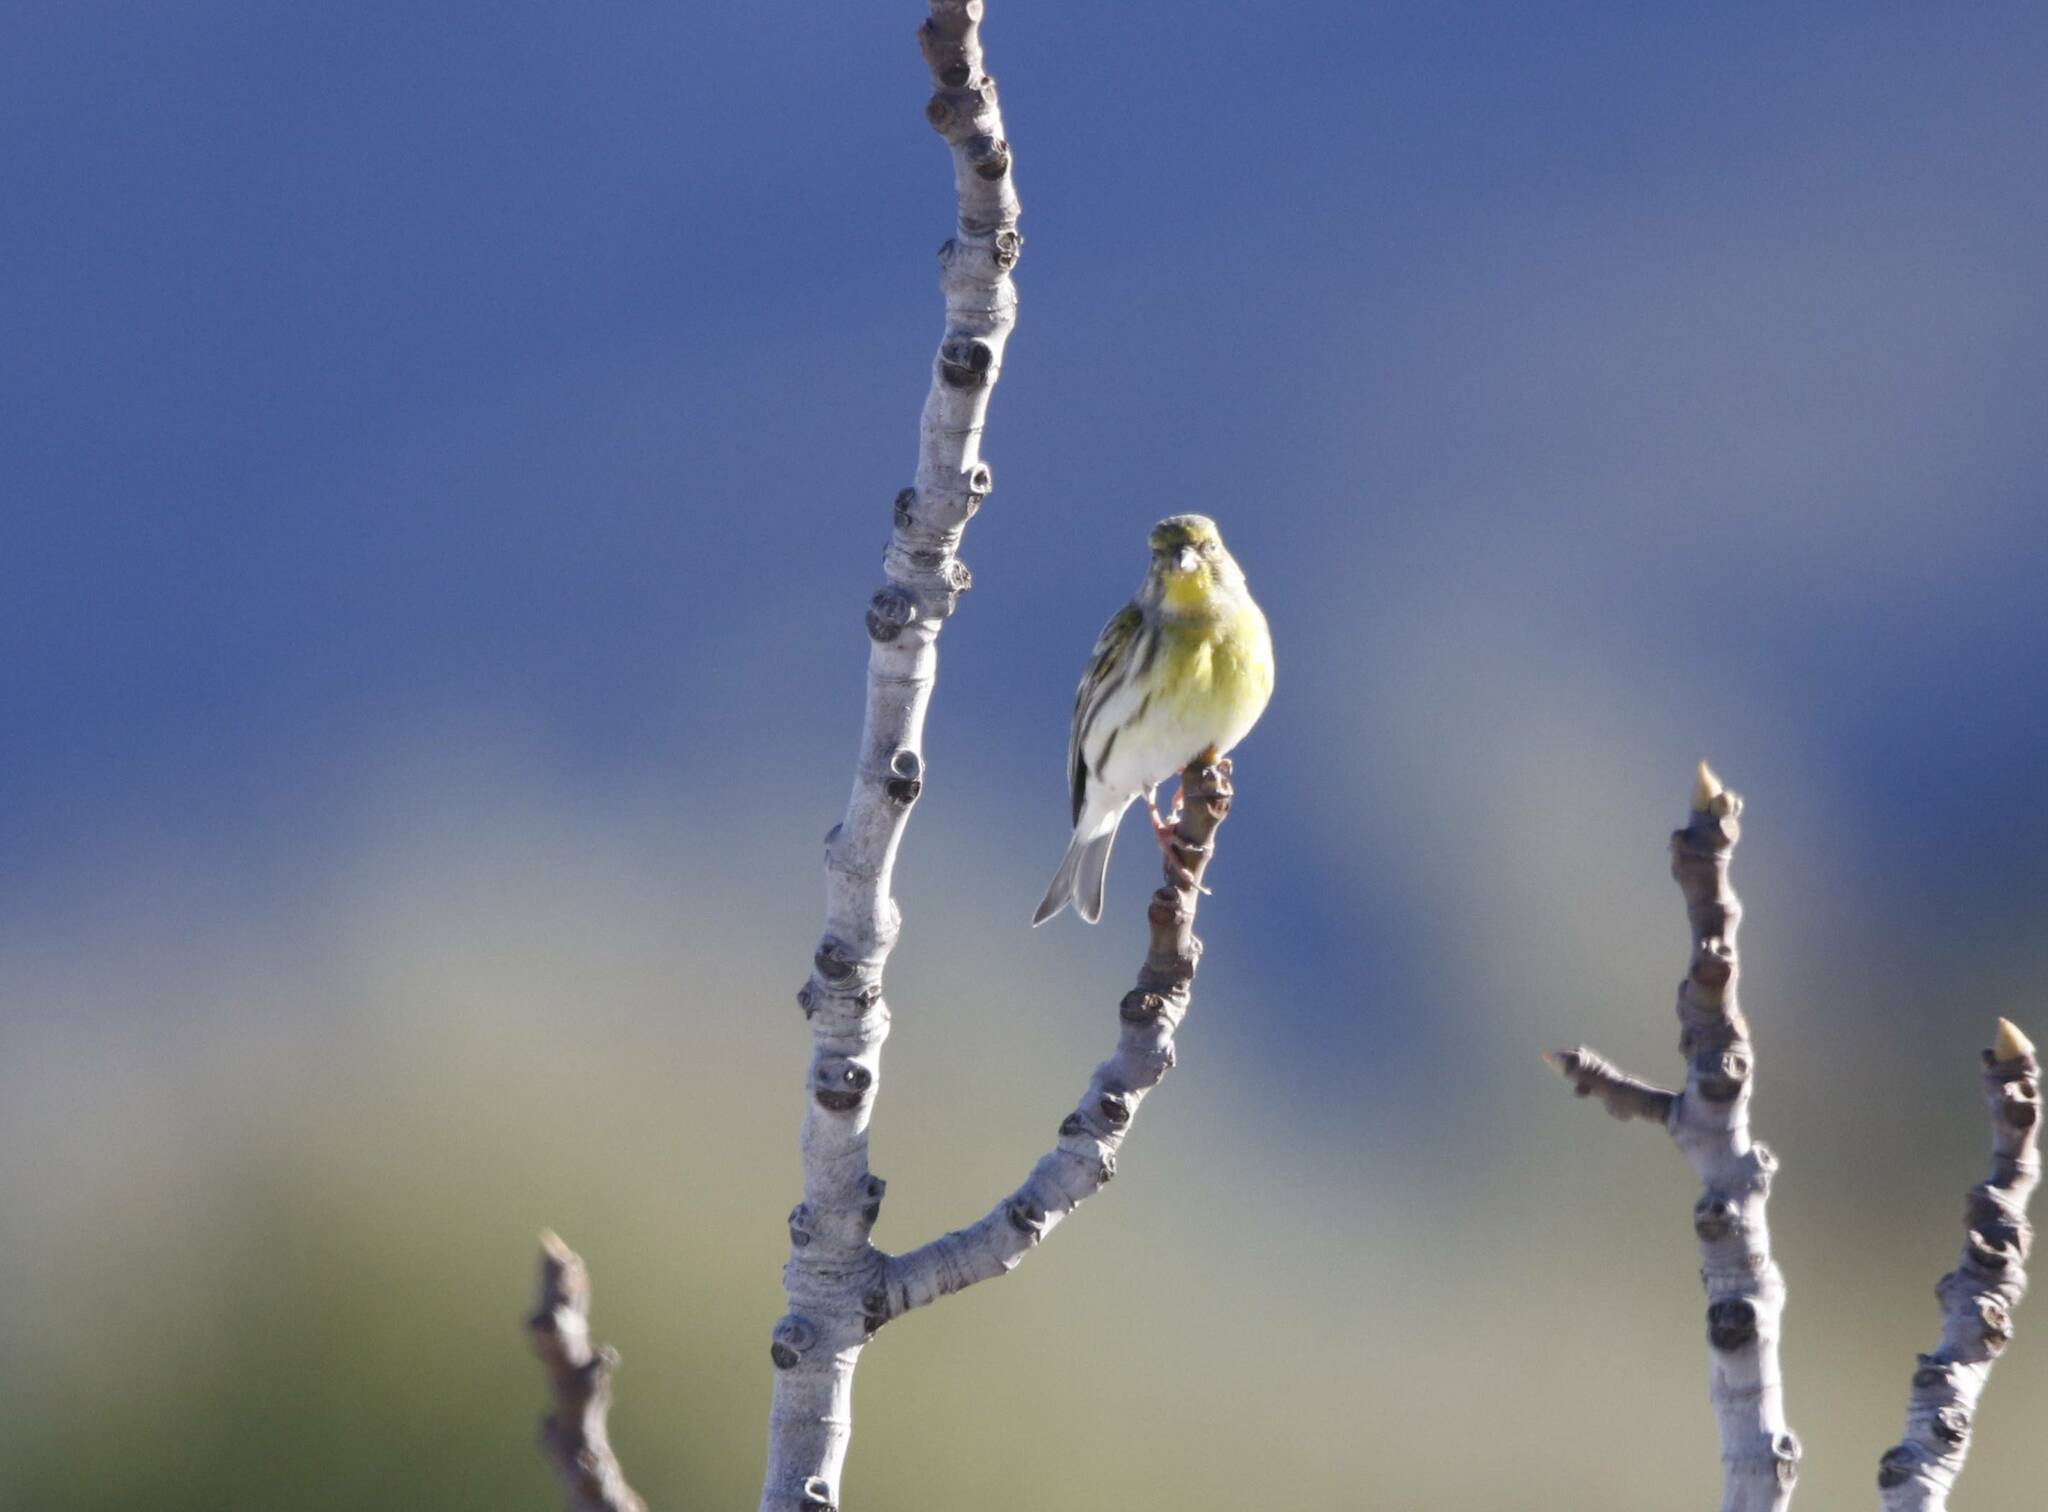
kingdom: Animalia
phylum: Chordata
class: Aves
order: Passeriformes
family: Fringillidae
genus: Serinus
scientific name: Serinus serinus
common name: European serin
